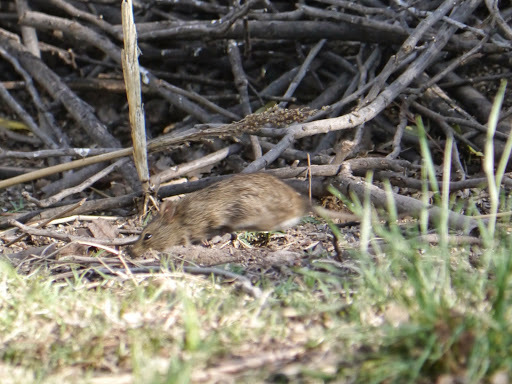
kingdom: Animalia
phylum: Chordata
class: Mammalia
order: Rodentia
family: Cricetidae
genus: Sigmodon
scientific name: Sigmodon arizonae
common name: Arizona cotton rat
